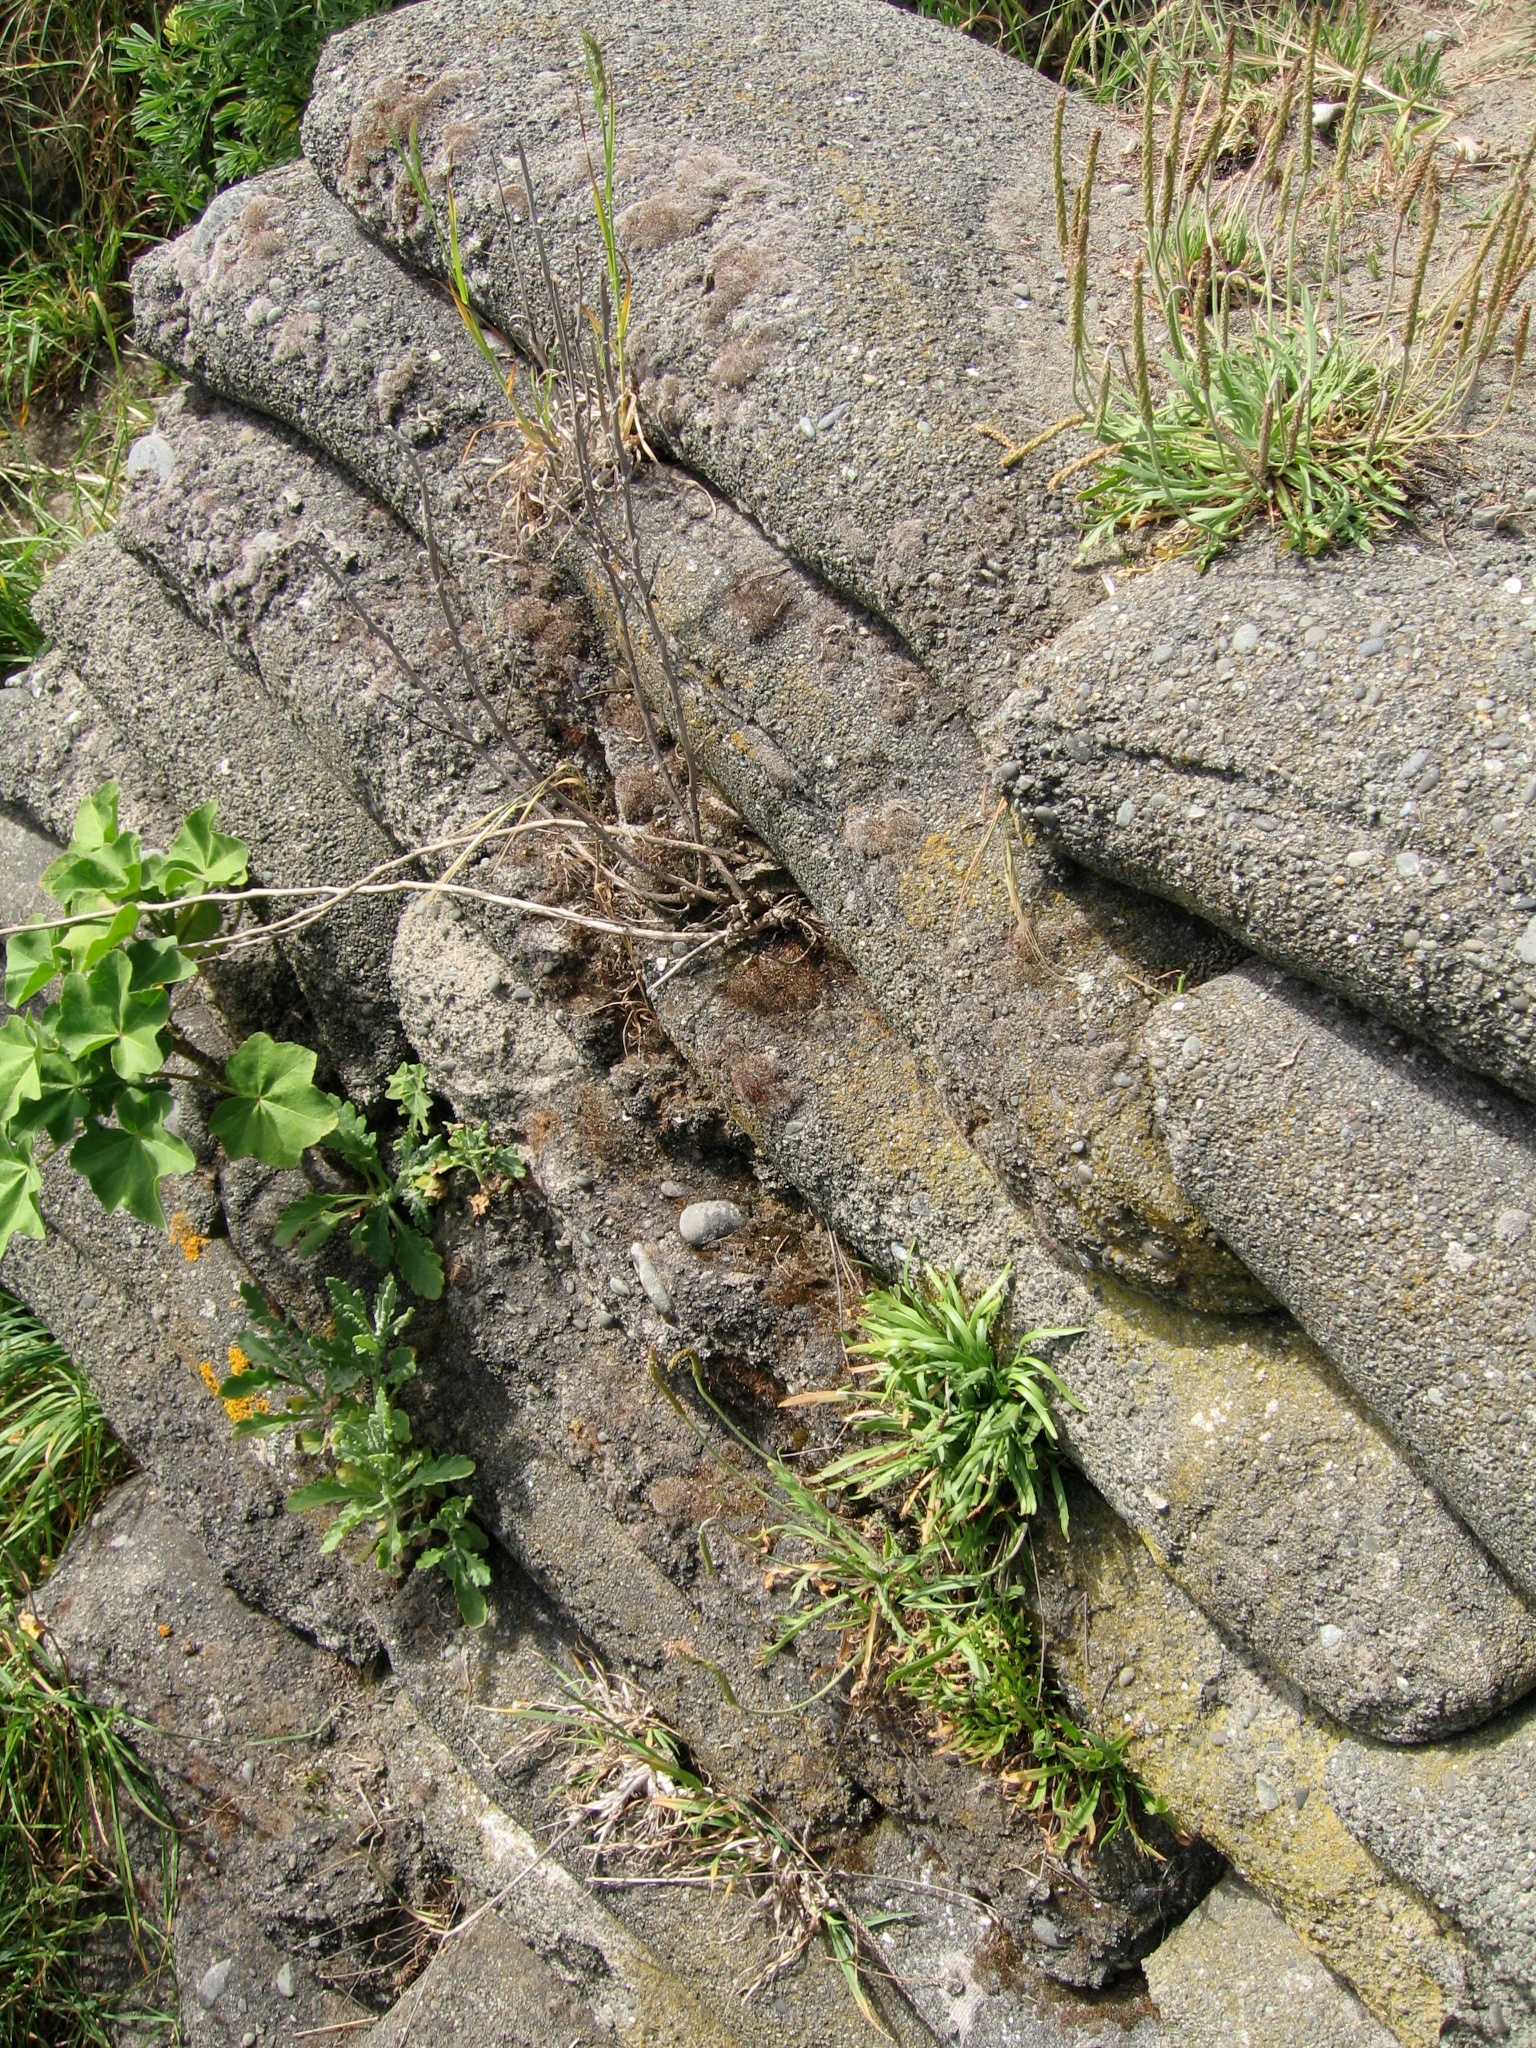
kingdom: Plantae
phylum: Tracheophyta
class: Magnoliopsida
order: Lamiales
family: Plantaginaceae
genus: Plantago
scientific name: Plantago coronopus
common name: Buck's-horn plantain
